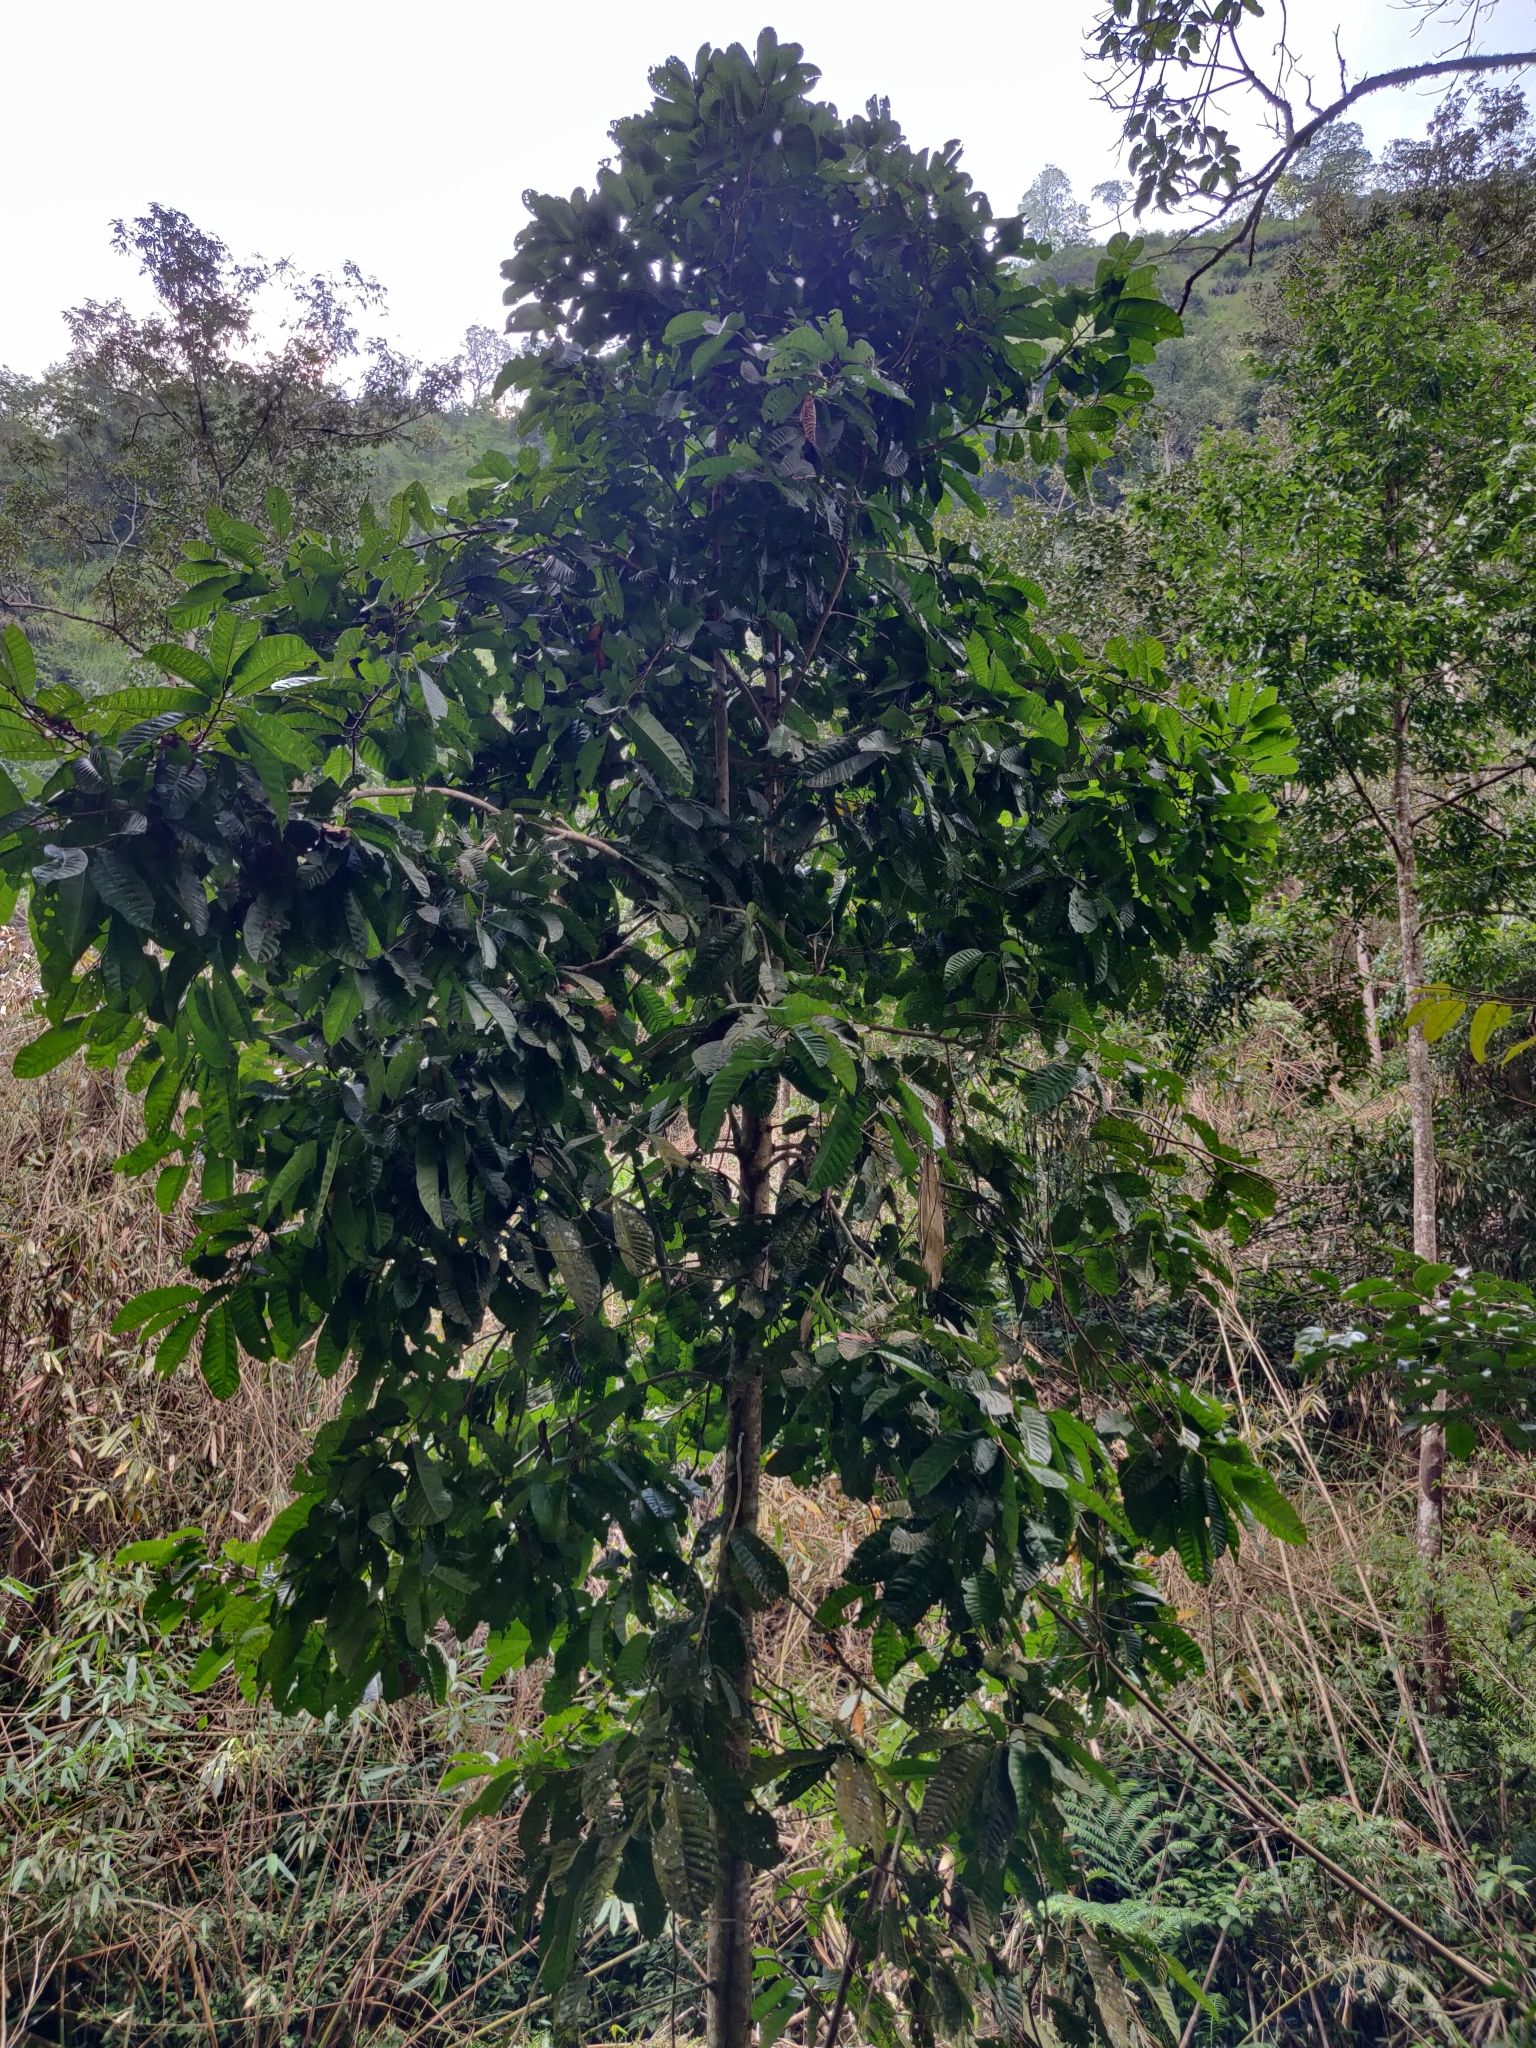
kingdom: Plantae
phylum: Tracheophyta
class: Magnoliopsida
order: Malvales
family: Dipterocarpaceae
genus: Vateria
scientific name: Vateria indica
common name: White dammar
